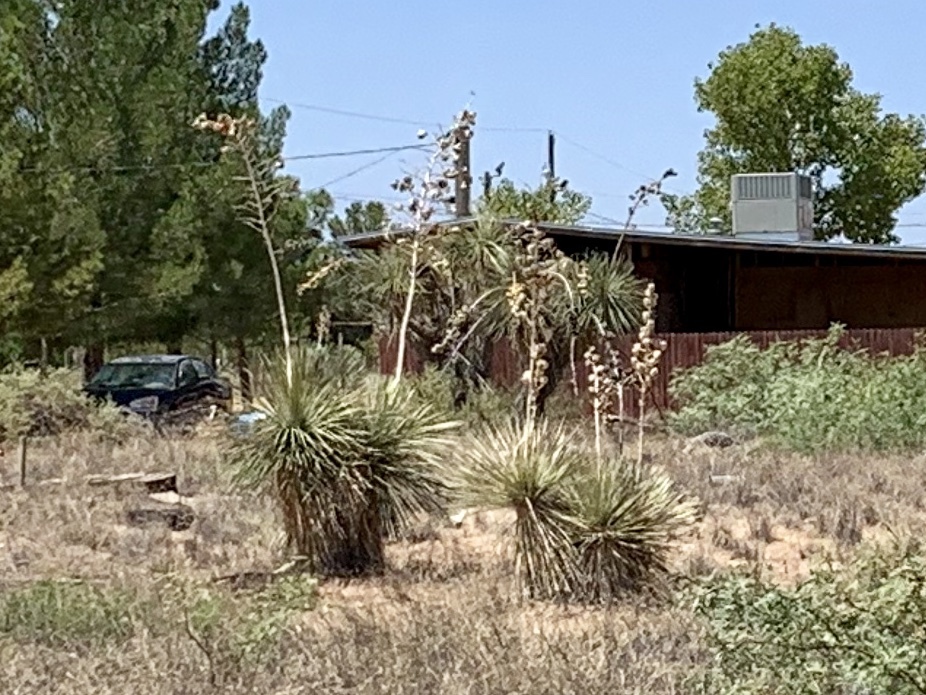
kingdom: Plantae
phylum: Tracheophyta
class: Liliopsida
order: Asparagales
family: Asparagaceae
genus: Yucca
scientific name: Yucca elata
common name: Palmella
